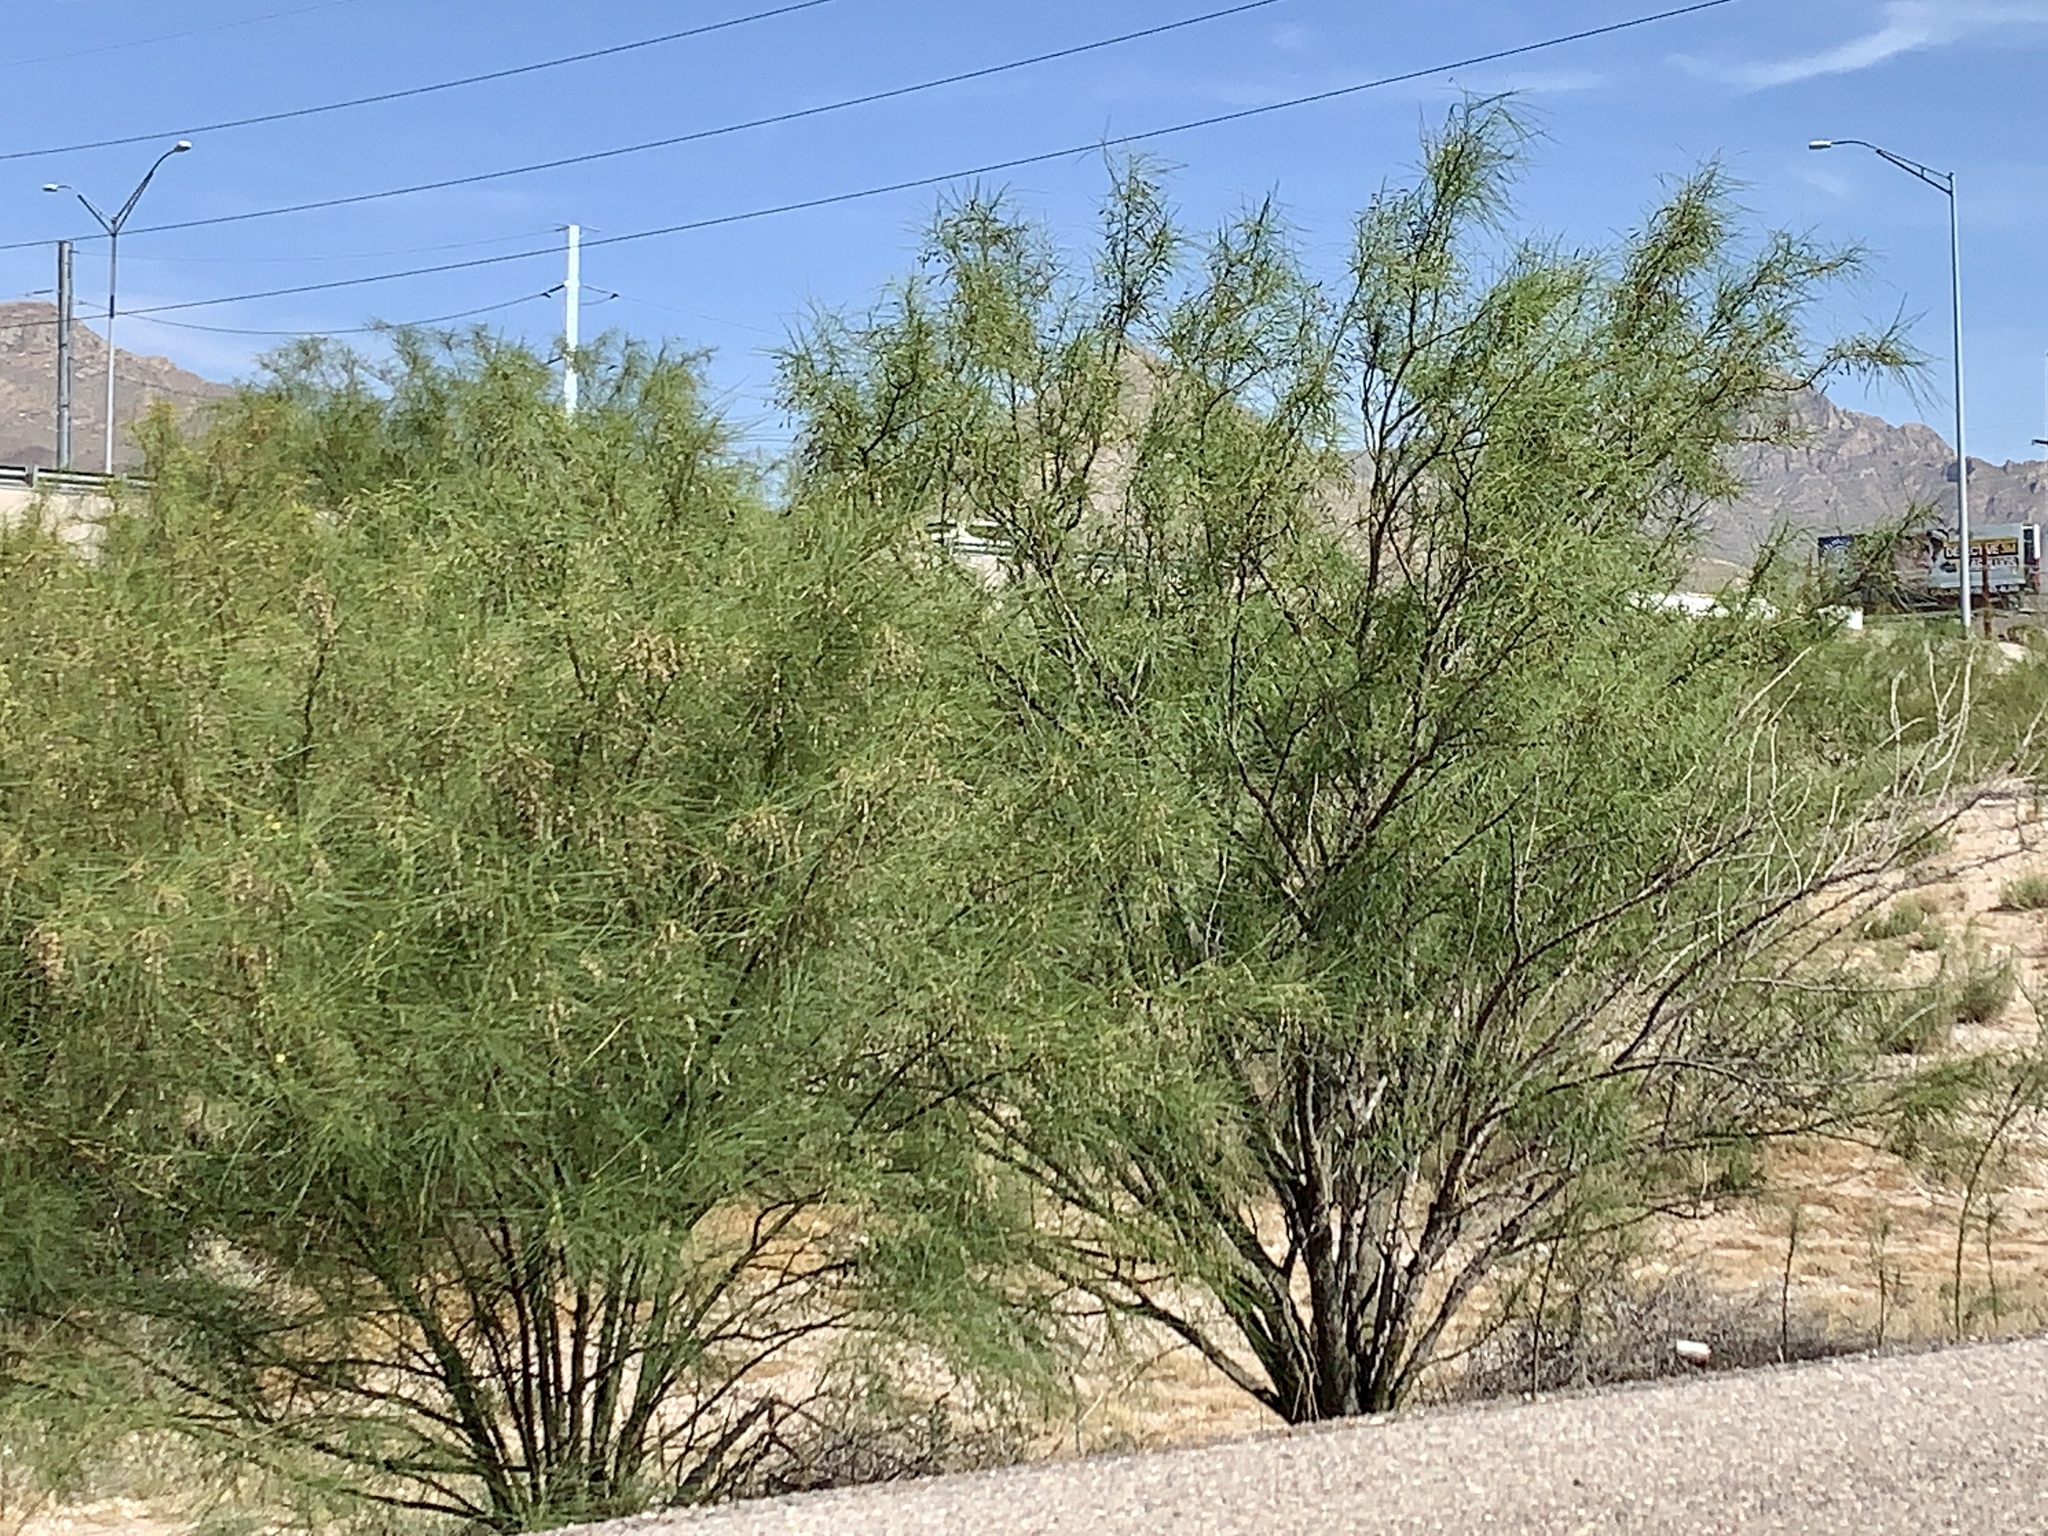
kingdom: Plantae
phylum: Tracheophyta
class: Magnoliopsida
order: Fabales
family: Fabaceae
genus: Parkinsonia
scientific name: Parkinsonia aculeata
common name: Jerusalem thorn
